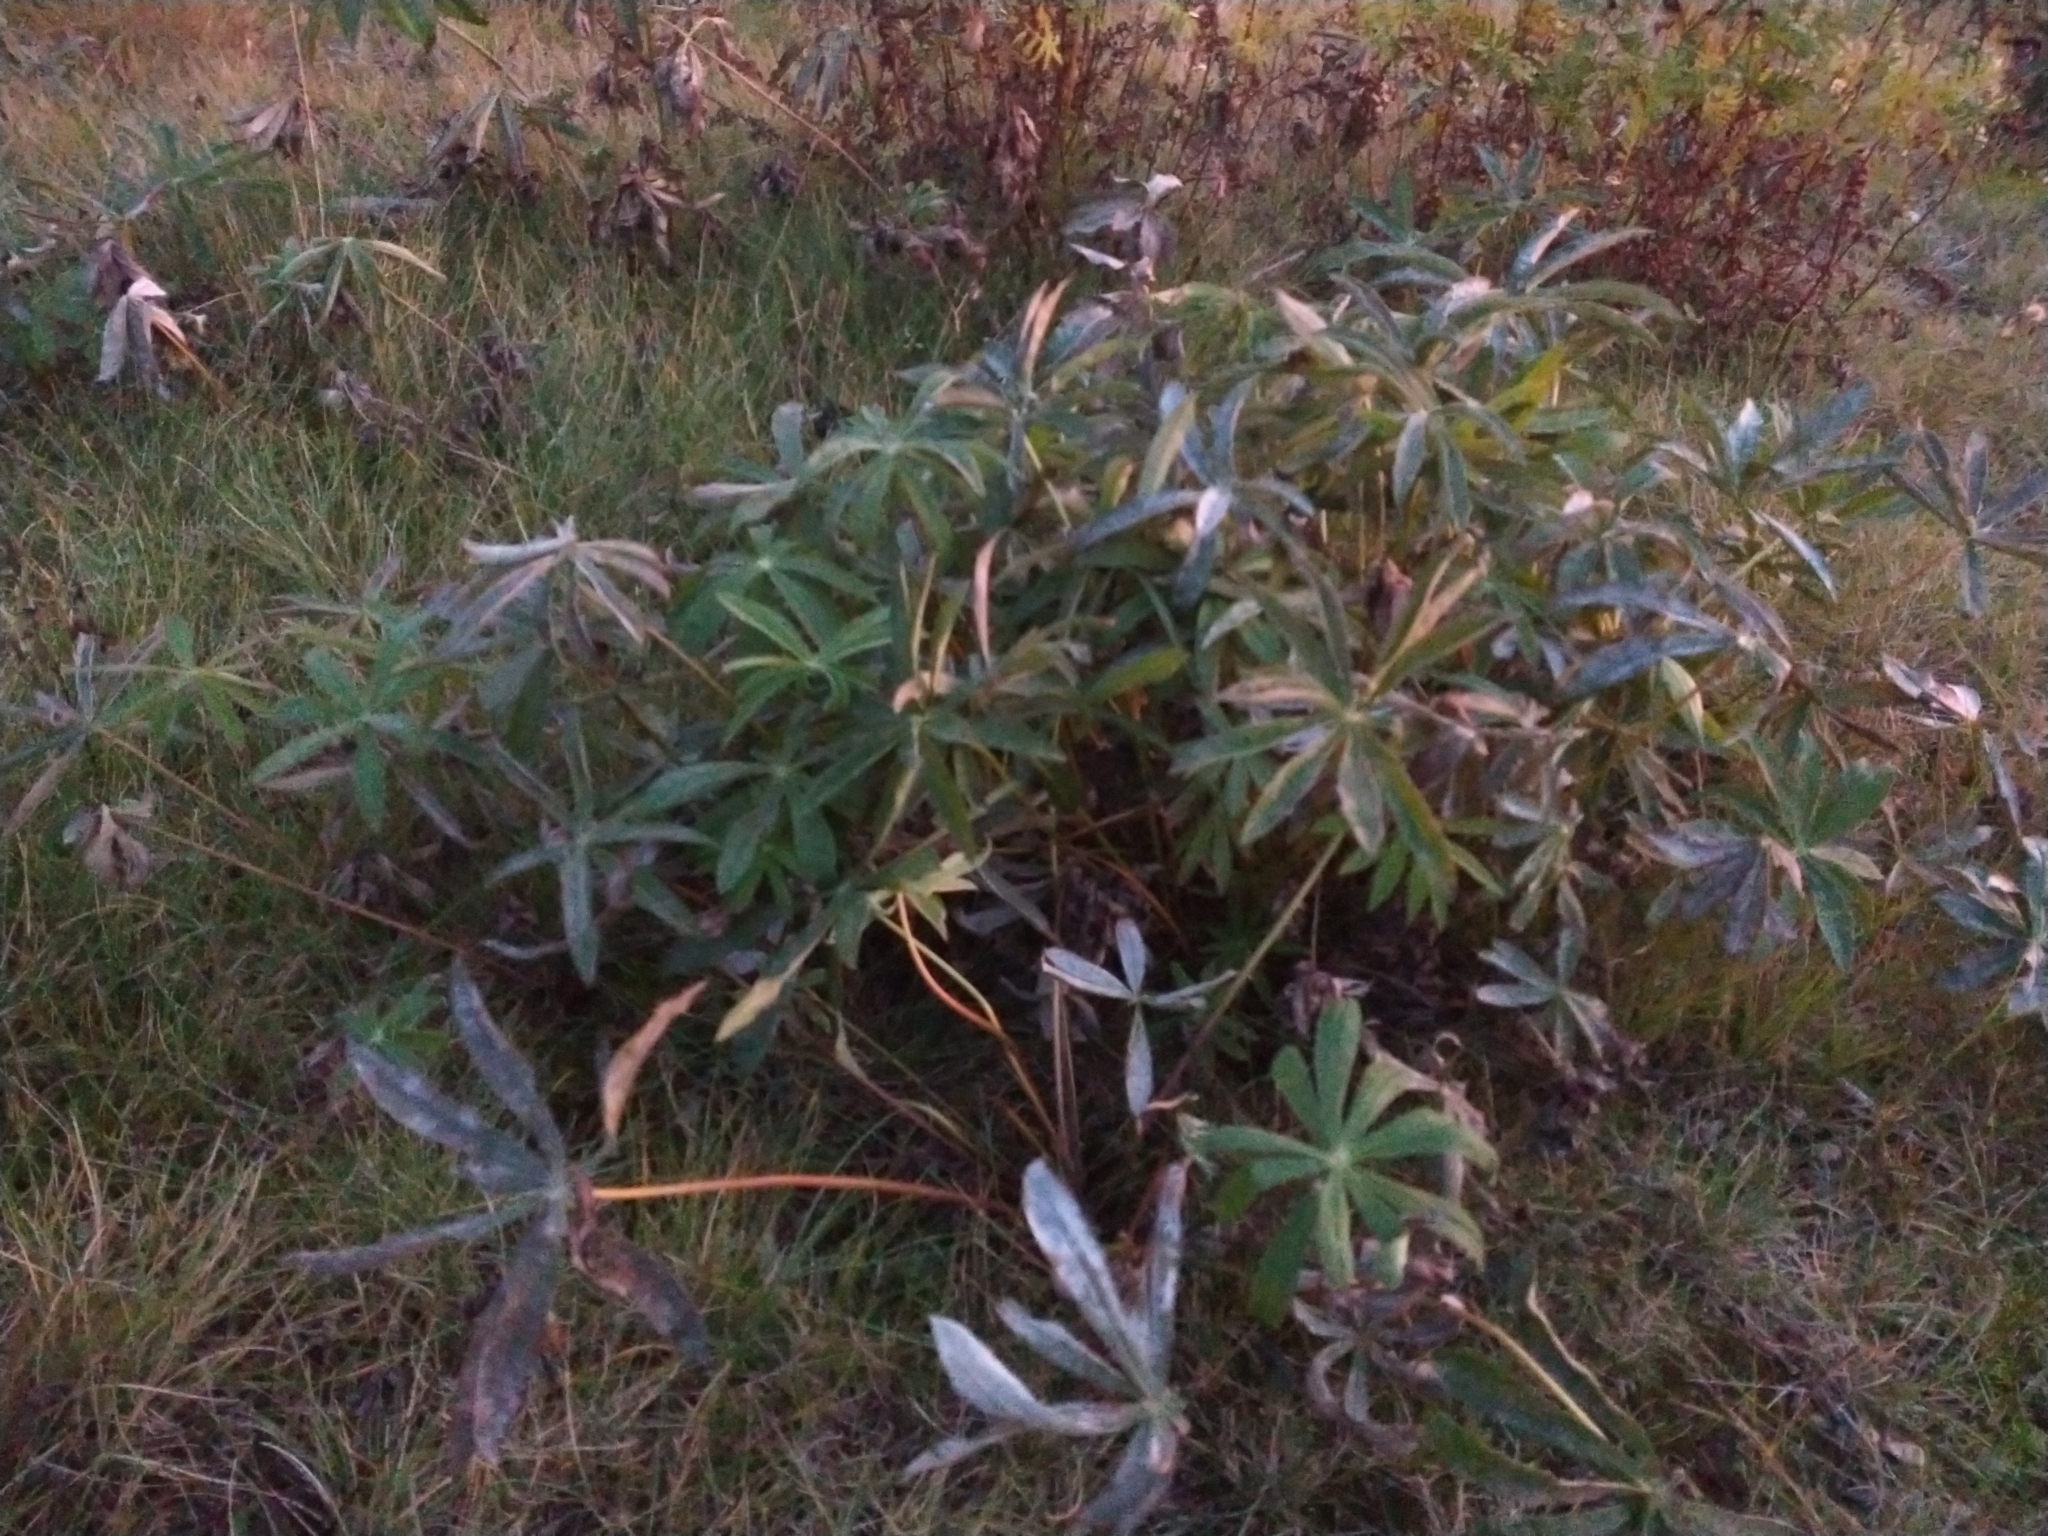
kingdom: Plantae
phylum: Tracheophyta
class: Magnoliopsida
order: Fabales
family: Fabaceae
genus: Lupinus
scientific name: Lupinus polyphyllus
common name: Garden lupin
